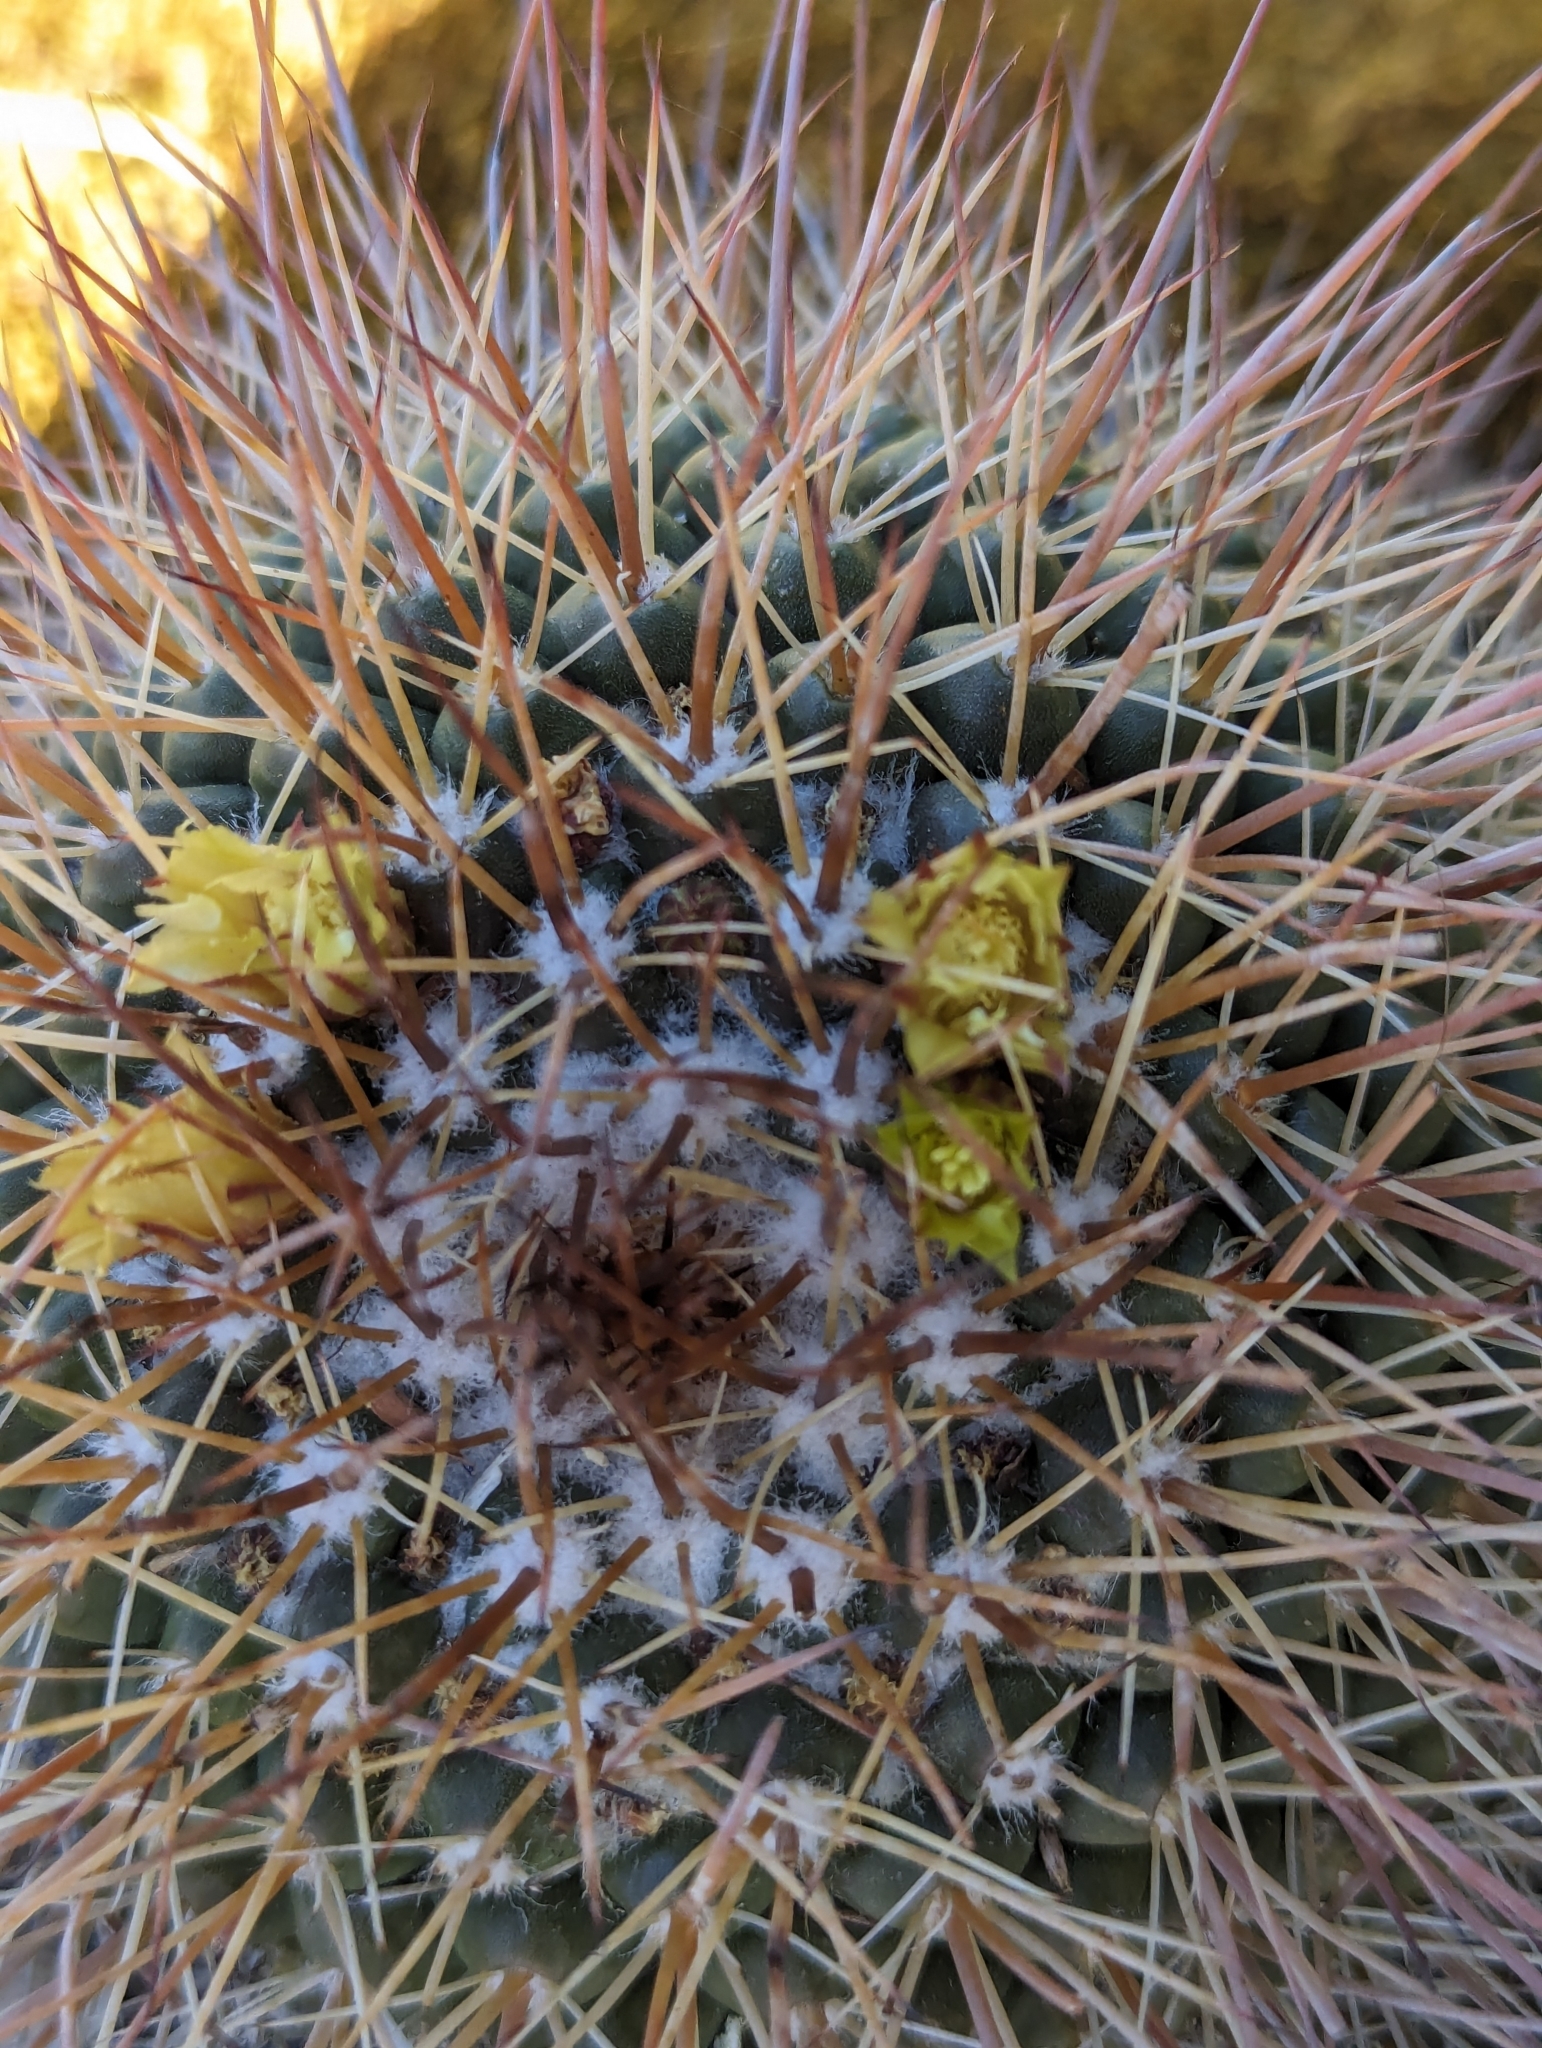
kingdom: Plantae
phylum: Tracheophyta
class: Magnoliopsida
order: Caryophyllales
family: Cactaceae
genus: Mammillaria
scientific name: Mammillaria petrophila
